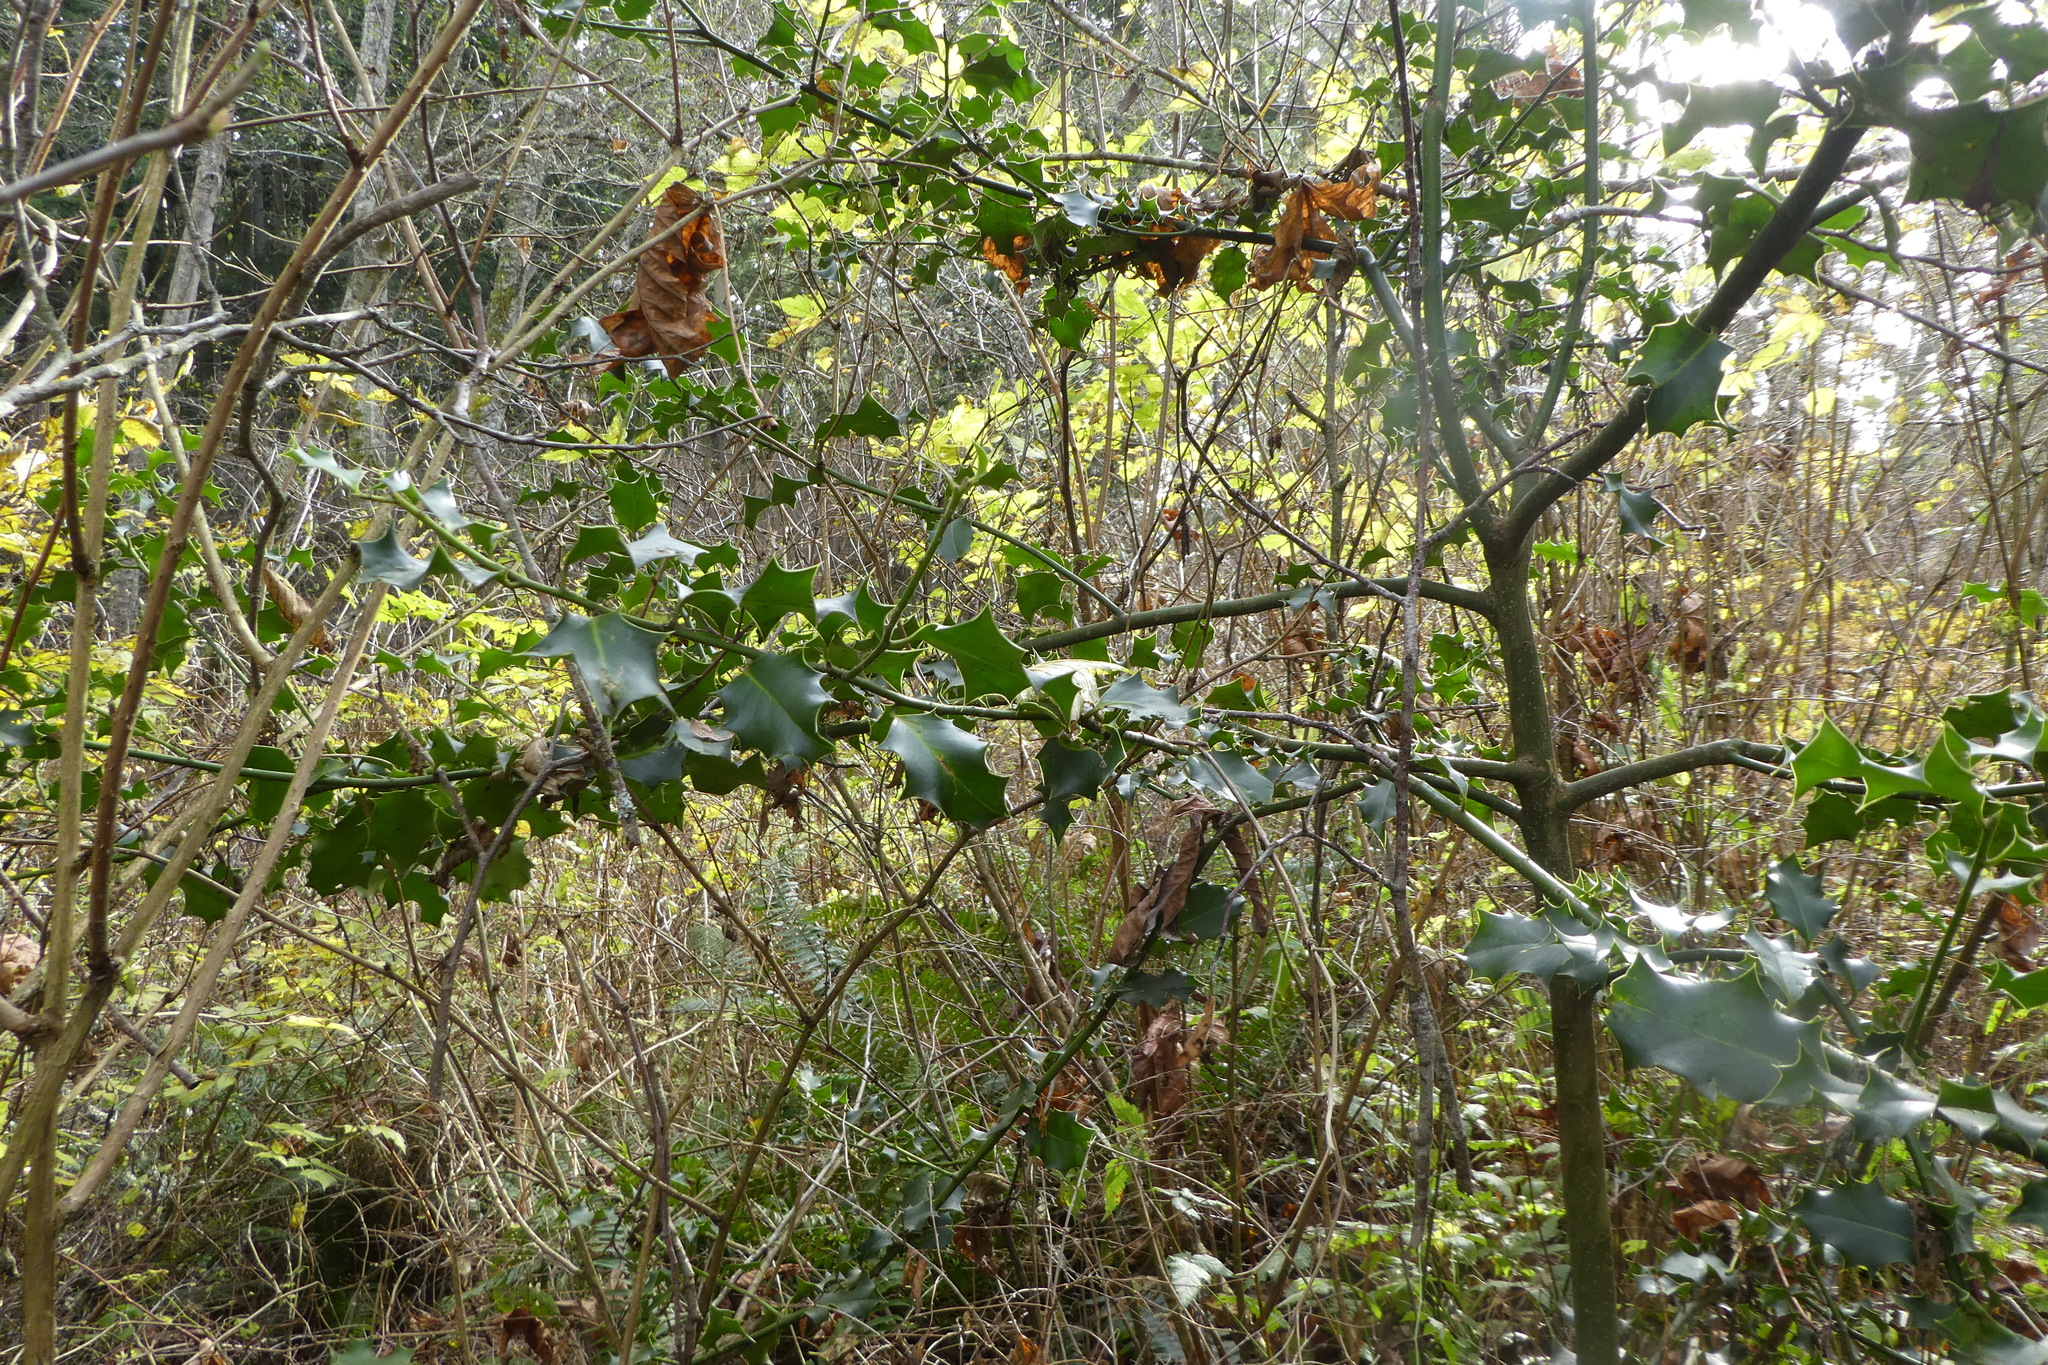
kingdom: Plantae
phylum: Tracheophyta
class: Magnoliopsida
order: Aquifoliales
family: Aquifoliaceae
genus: Ilex
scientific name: Ilex aquifolium
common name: English holly
